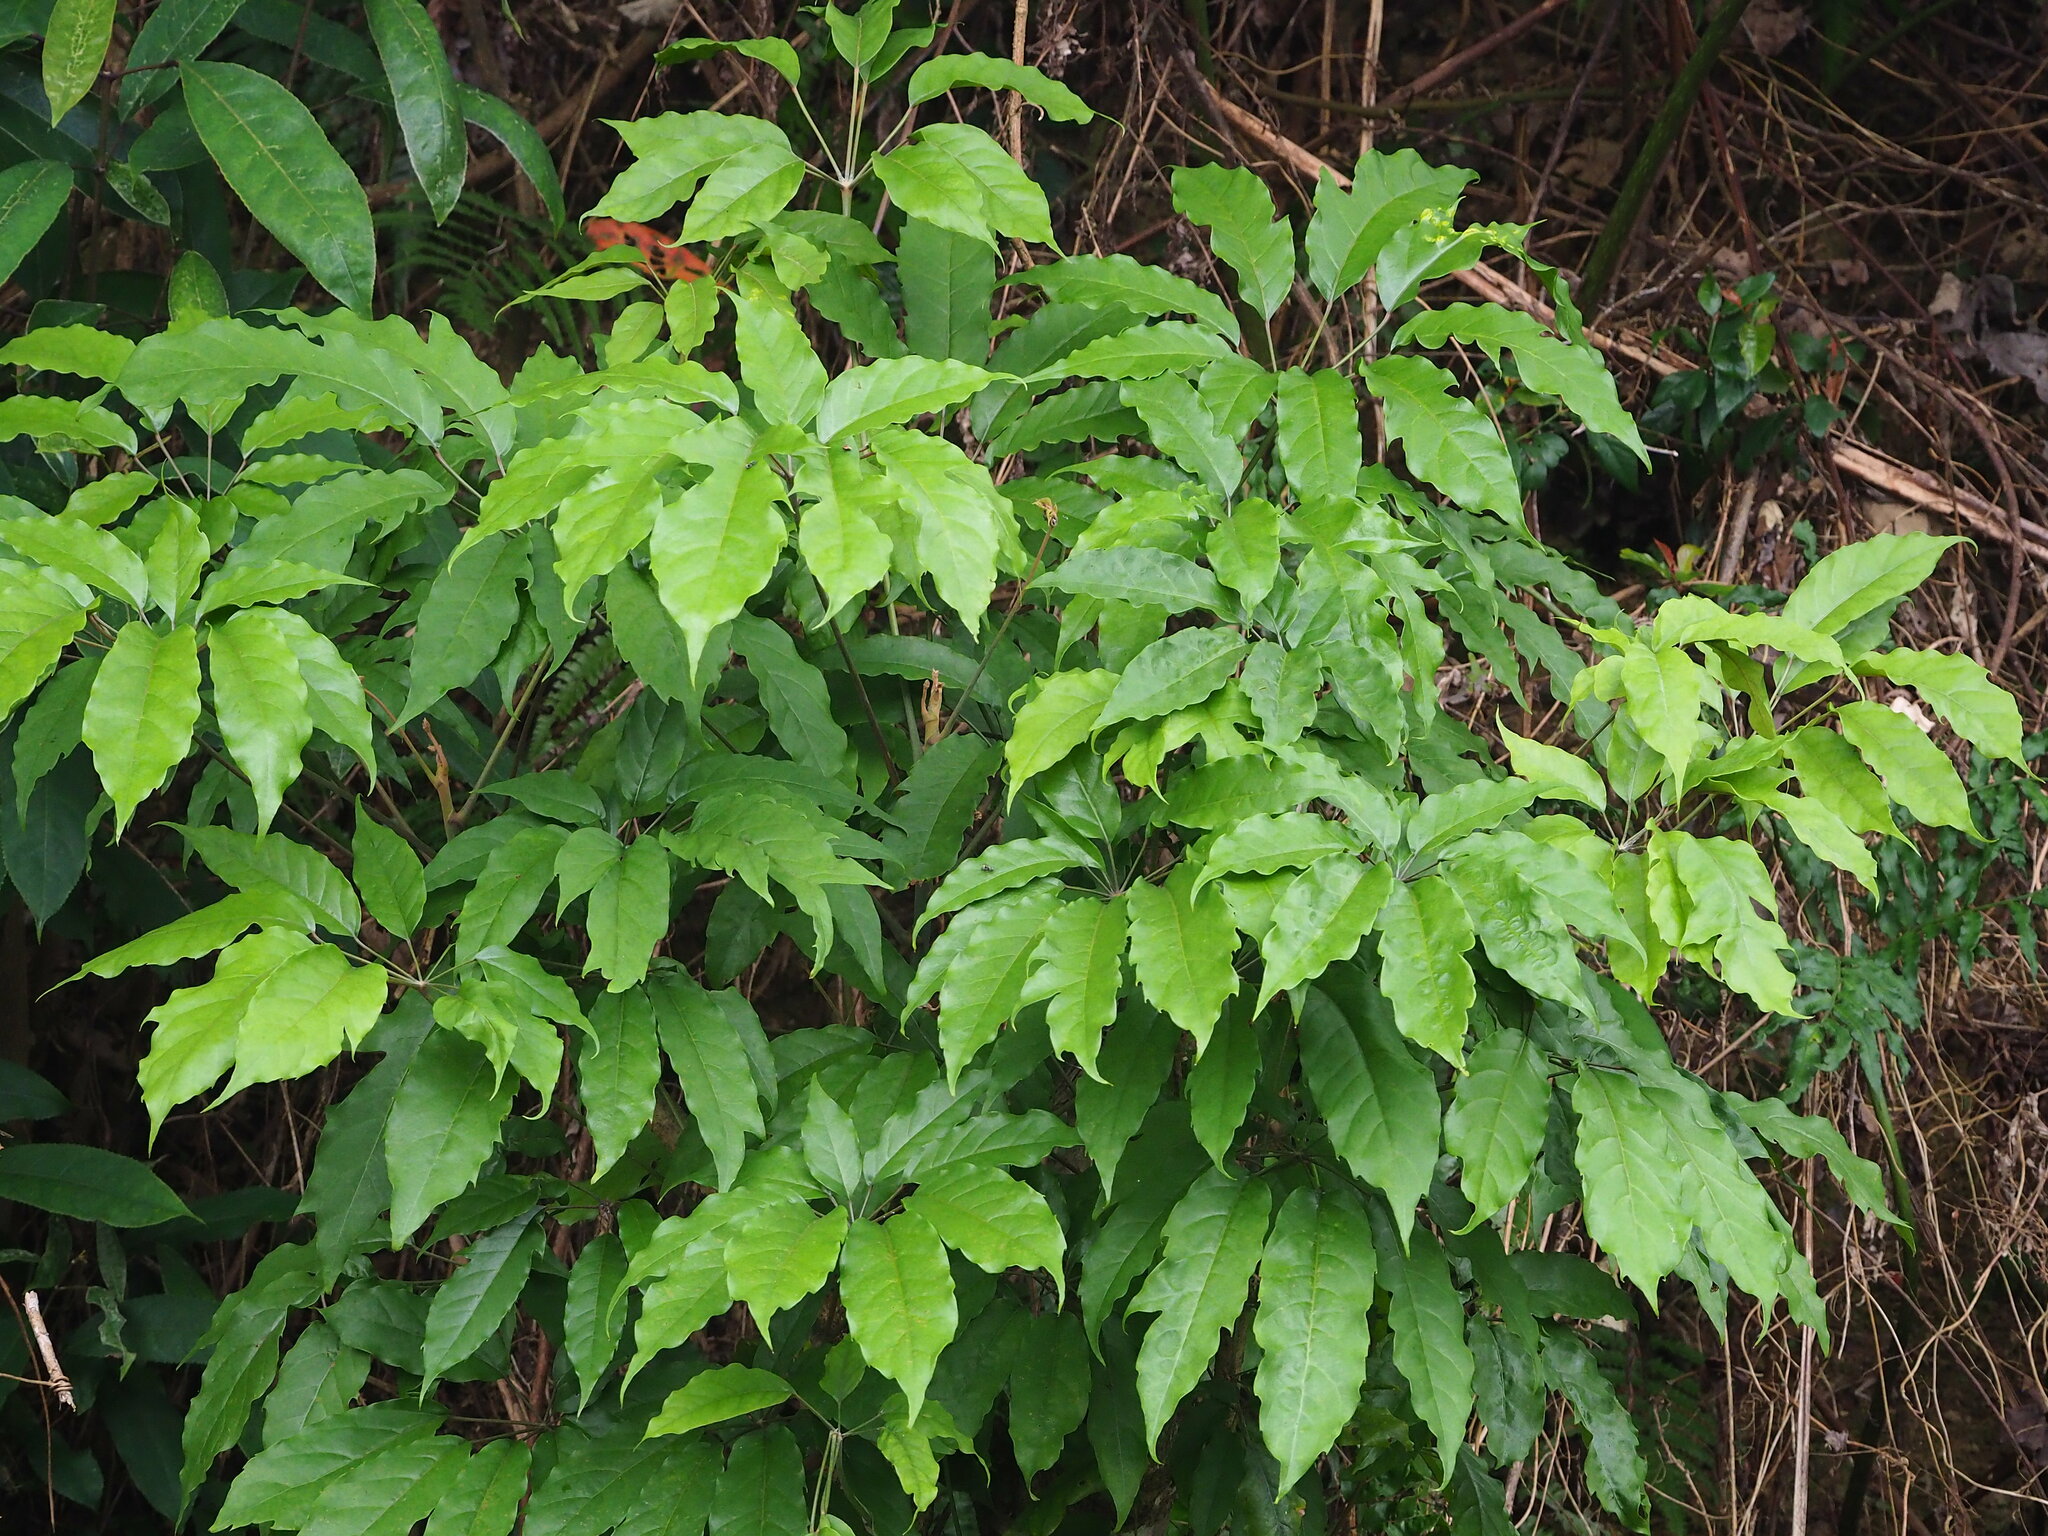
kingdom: Plantae
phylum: Tracheophyta
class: Magnoliopsida
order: Apiales
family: Araliaceae
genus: Heptapleurum
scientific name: Heptapleurum heptaphyllum
